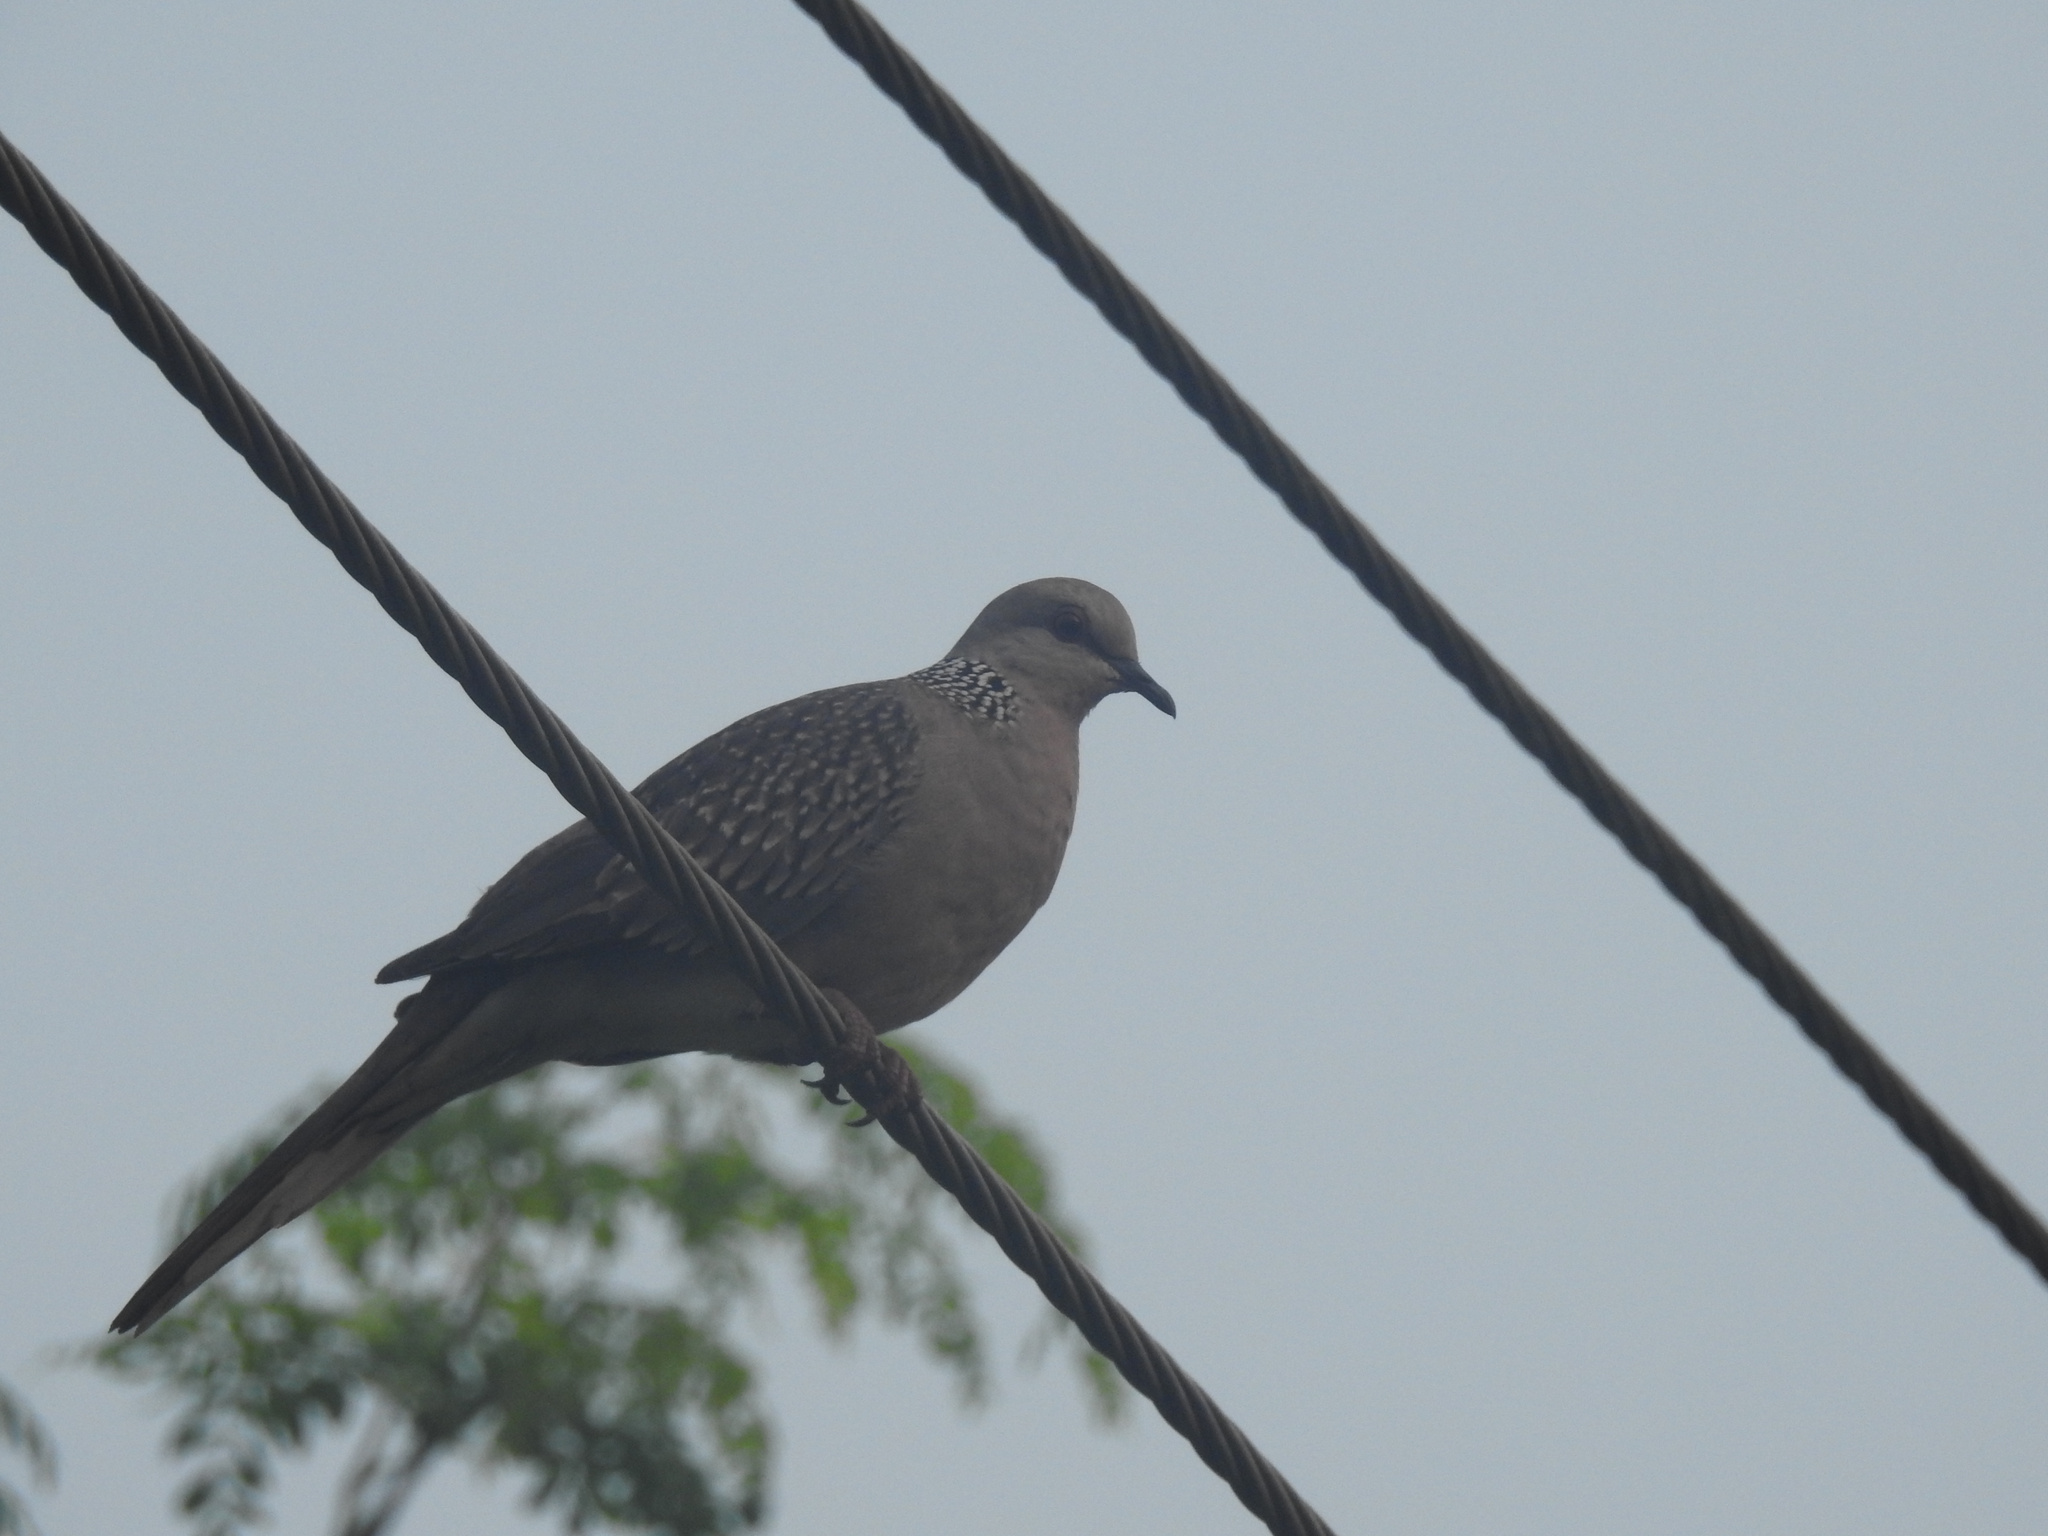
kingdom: Animalia
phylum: Chordata
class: Aves
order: Columbiformes
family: Columbidae
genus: Spilopelia
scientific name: Spilopelia chinensis
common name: Spotted dove
